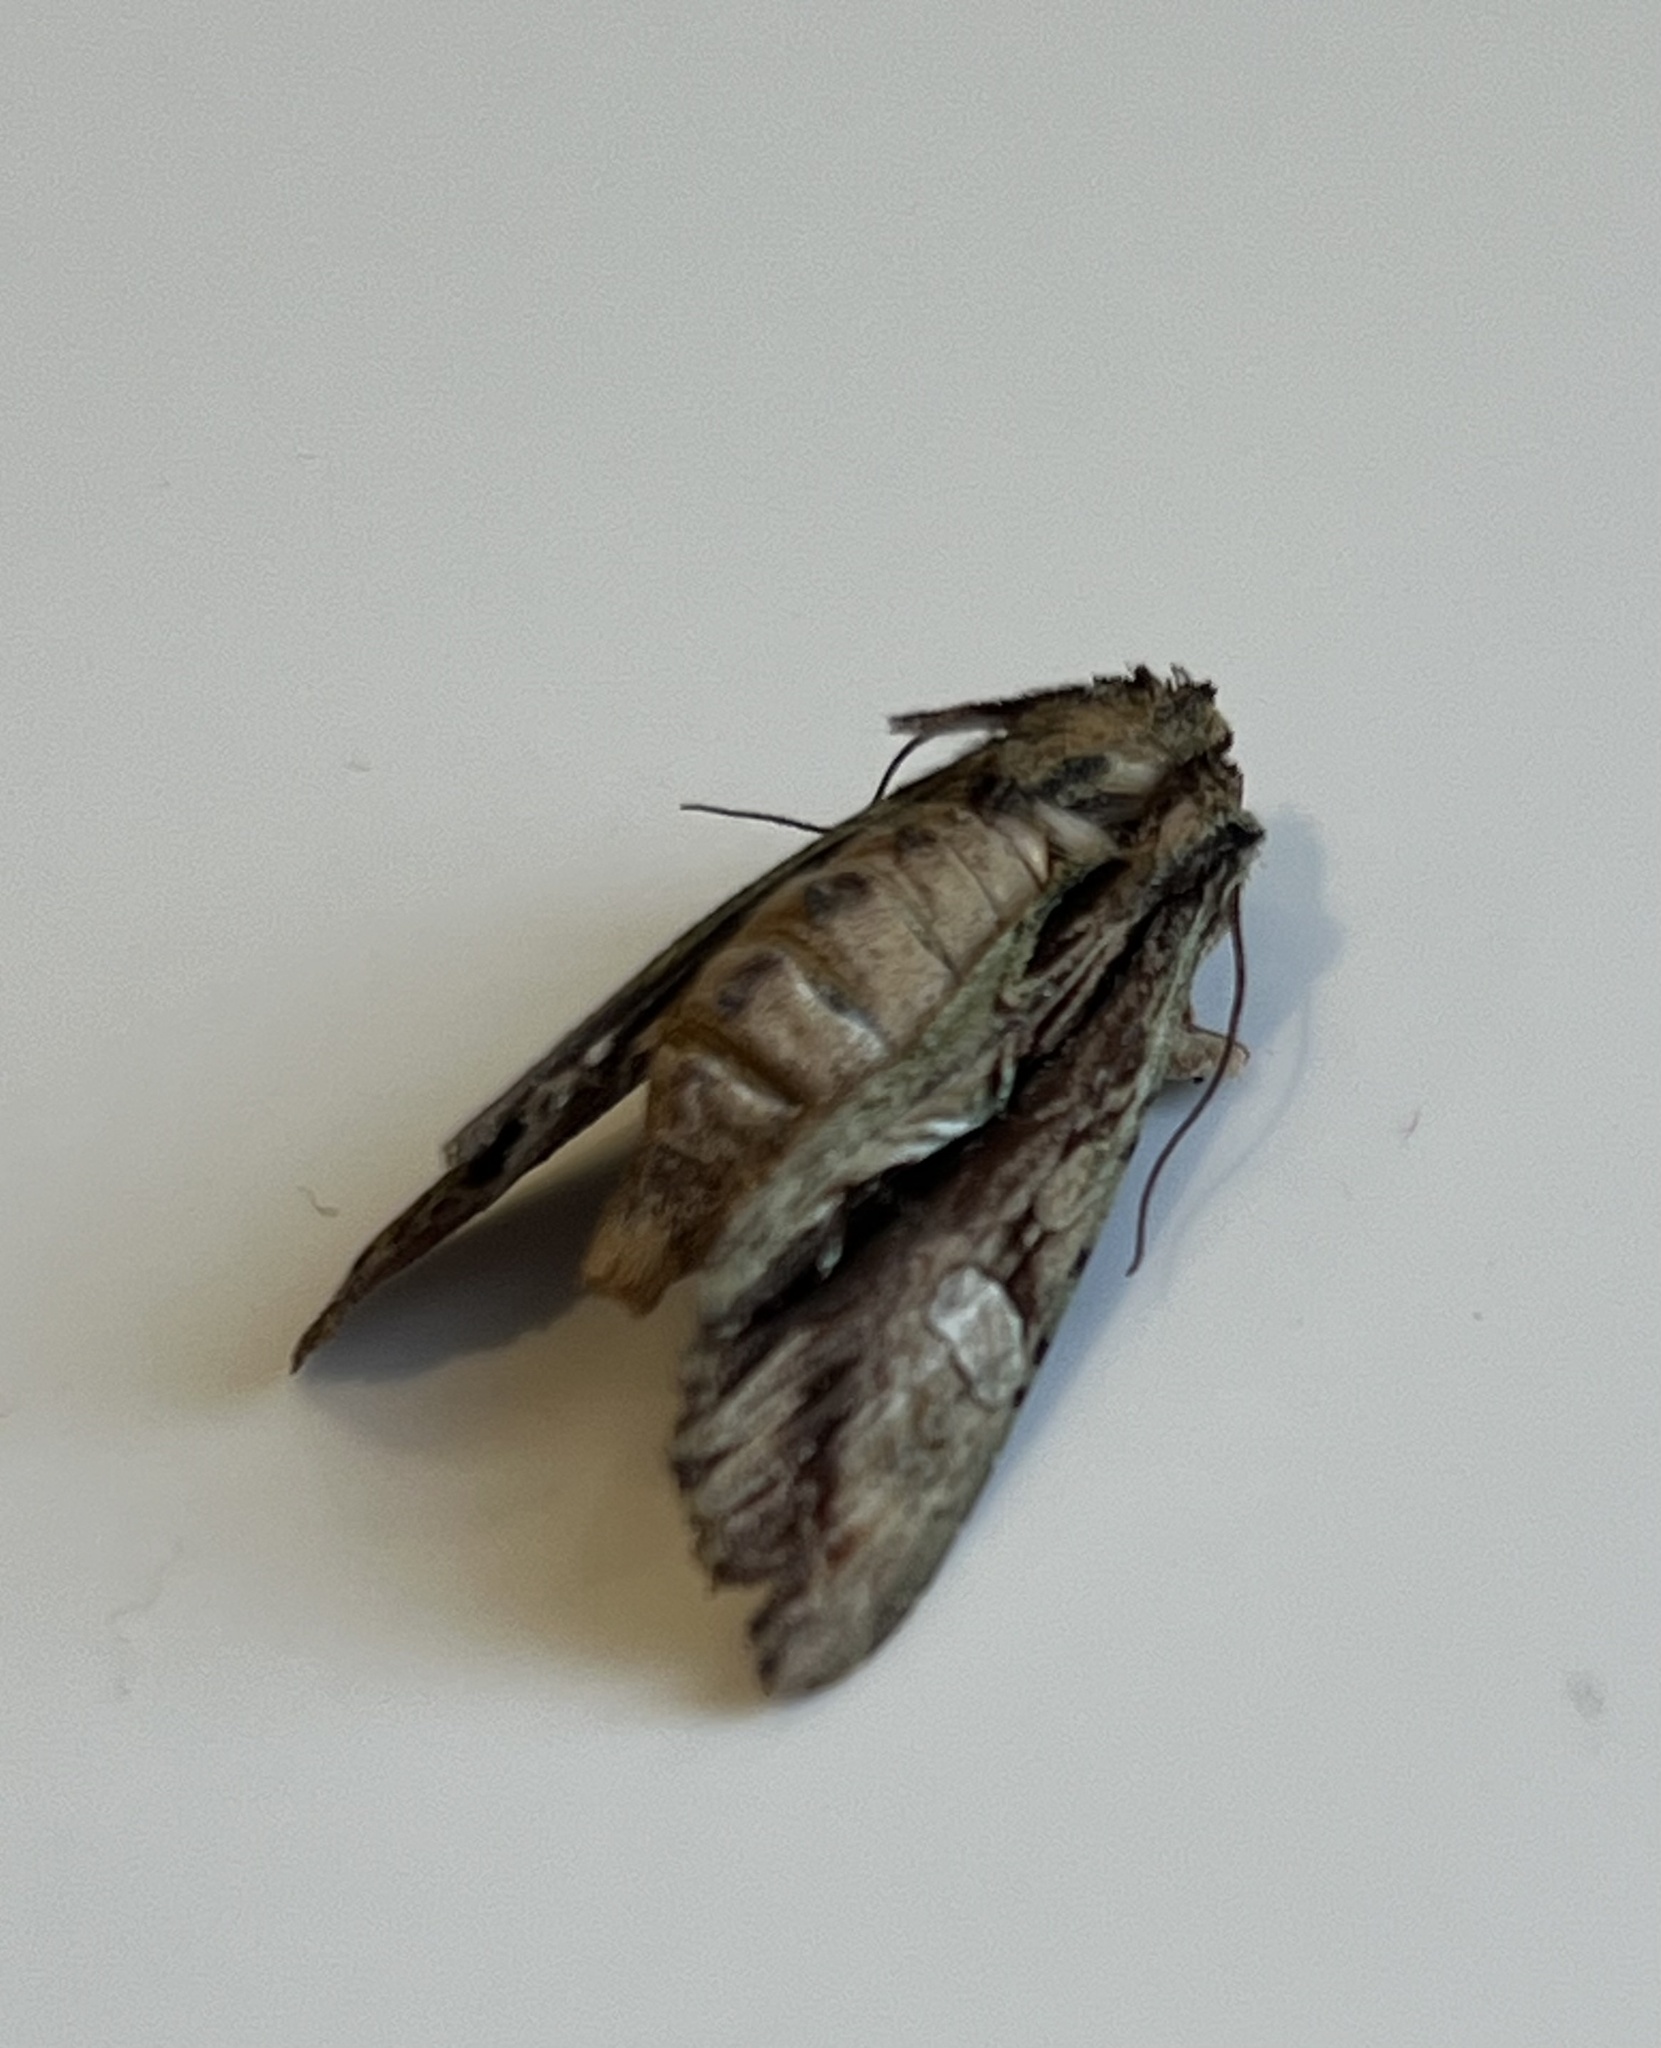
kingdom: Animalia
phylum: Arthropoda
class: Insecta
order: Lepidoptera
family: Noctuidae
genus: Meterana
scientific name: Meterana decorata
